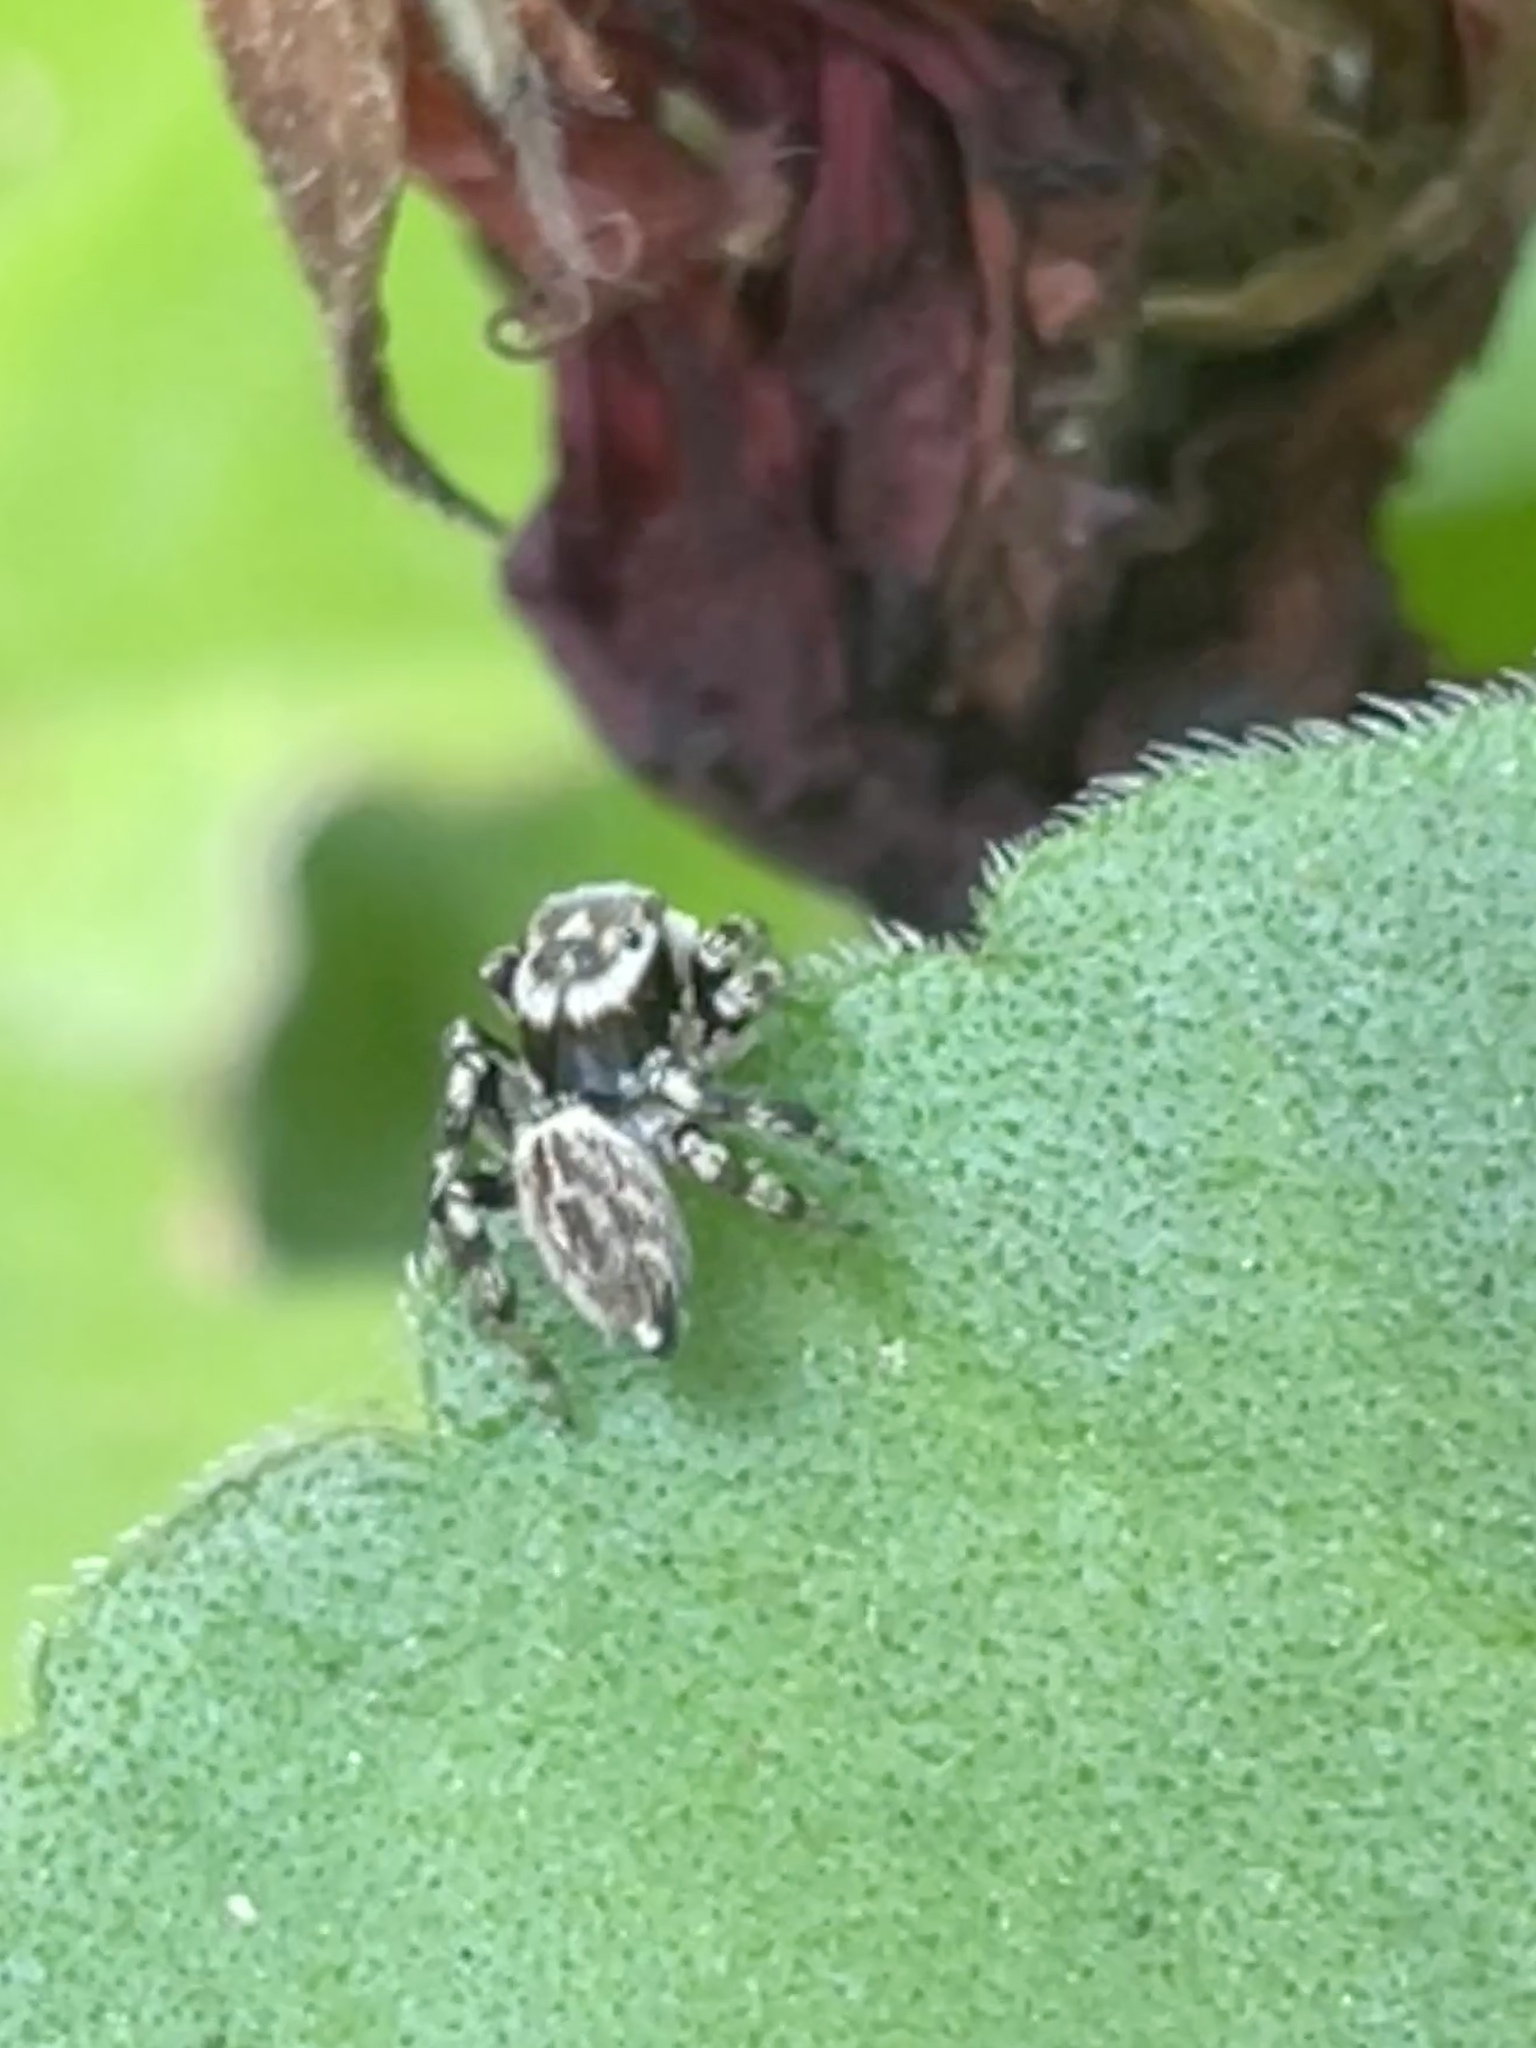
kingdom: Animalia
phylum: Arthropoda
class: Arachnida
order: Araneae
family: Salticidae
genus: Maratus
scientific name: Maratus griseus
